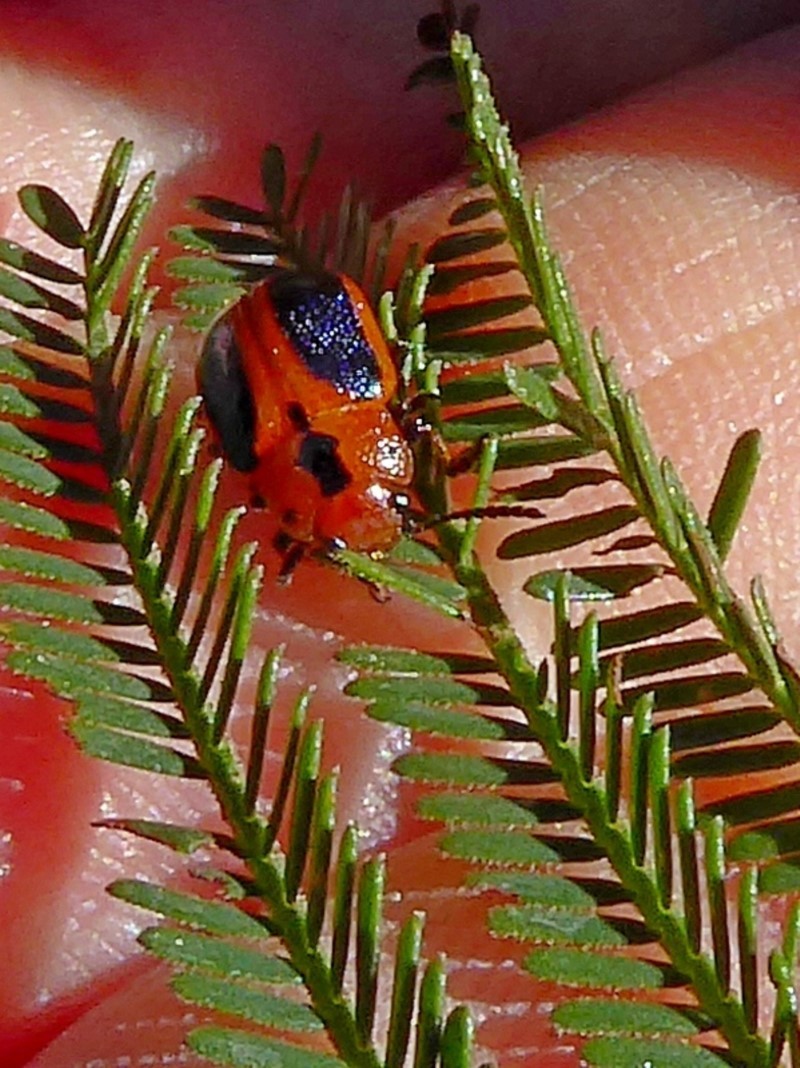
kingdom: Animalia
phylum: Arthropoda
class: Insecta
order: Coleoptera
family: Chrysomelidae
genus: Calomela
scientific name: Calomela
